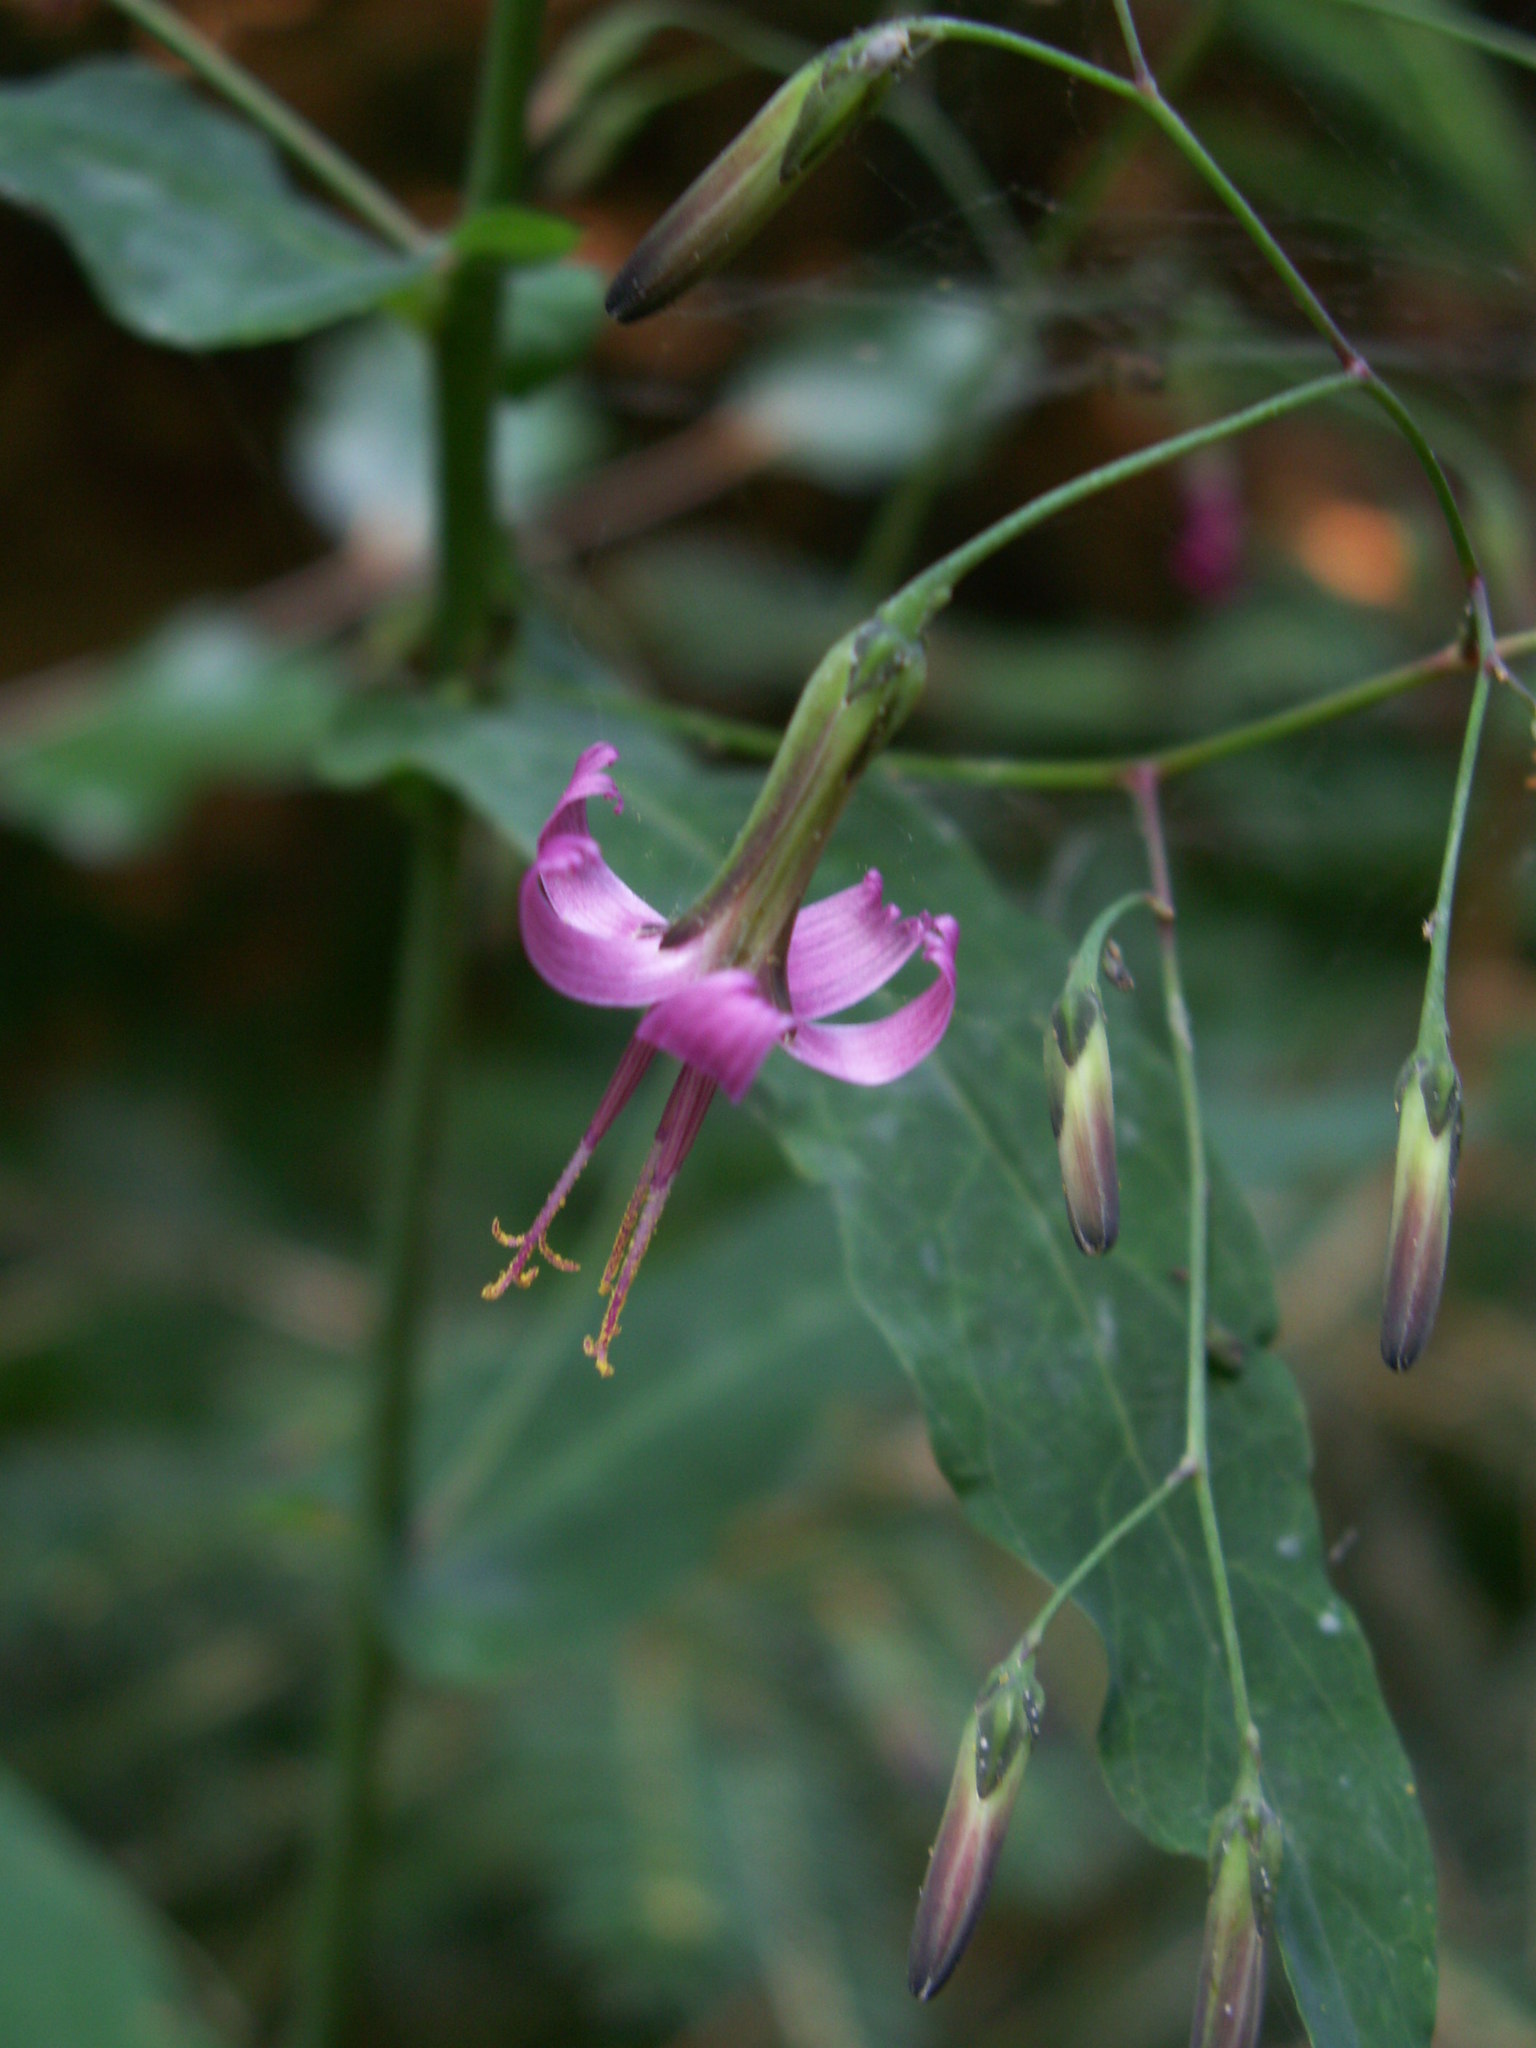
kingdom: Plantae
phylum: Tracheophyta
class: Magnoliopsida
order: Asterales
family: Asteraceae
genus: Prenanthes
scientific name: Prenanthes purpurea
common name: Purple lettuce
